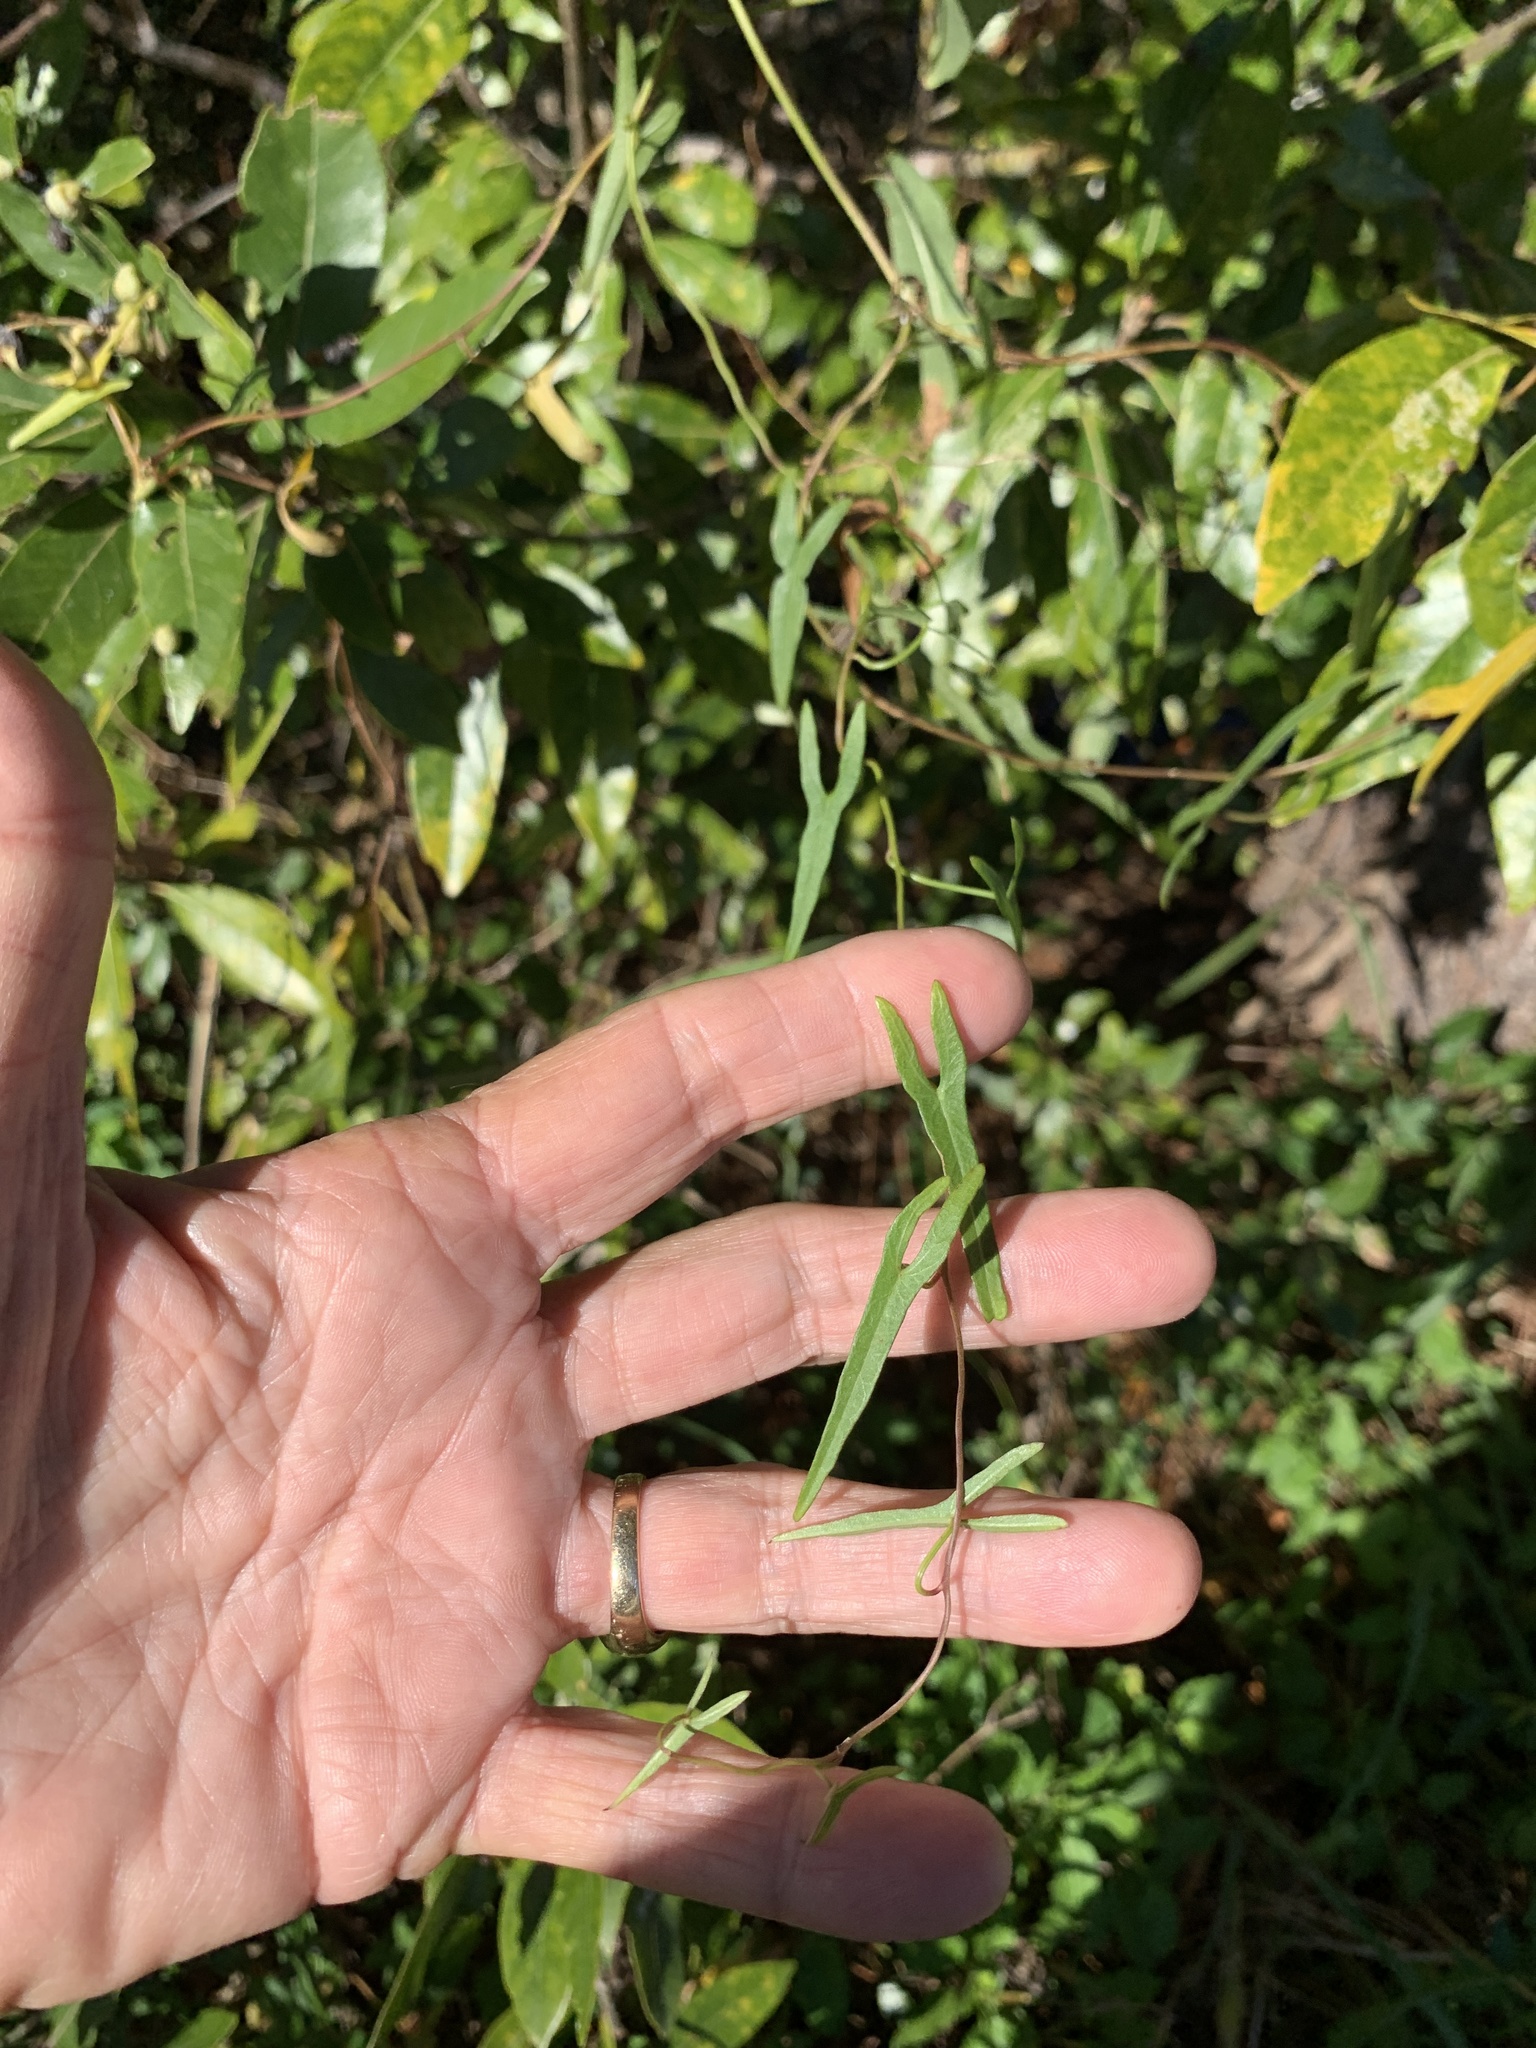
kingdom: Plantae
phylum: Tracheophyta
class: Magnoliopsida
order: Solanales
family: Convolvulaceae
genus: Ipomoea
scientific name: Ipomoea sagittata
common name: Saltmarsh morning glory
